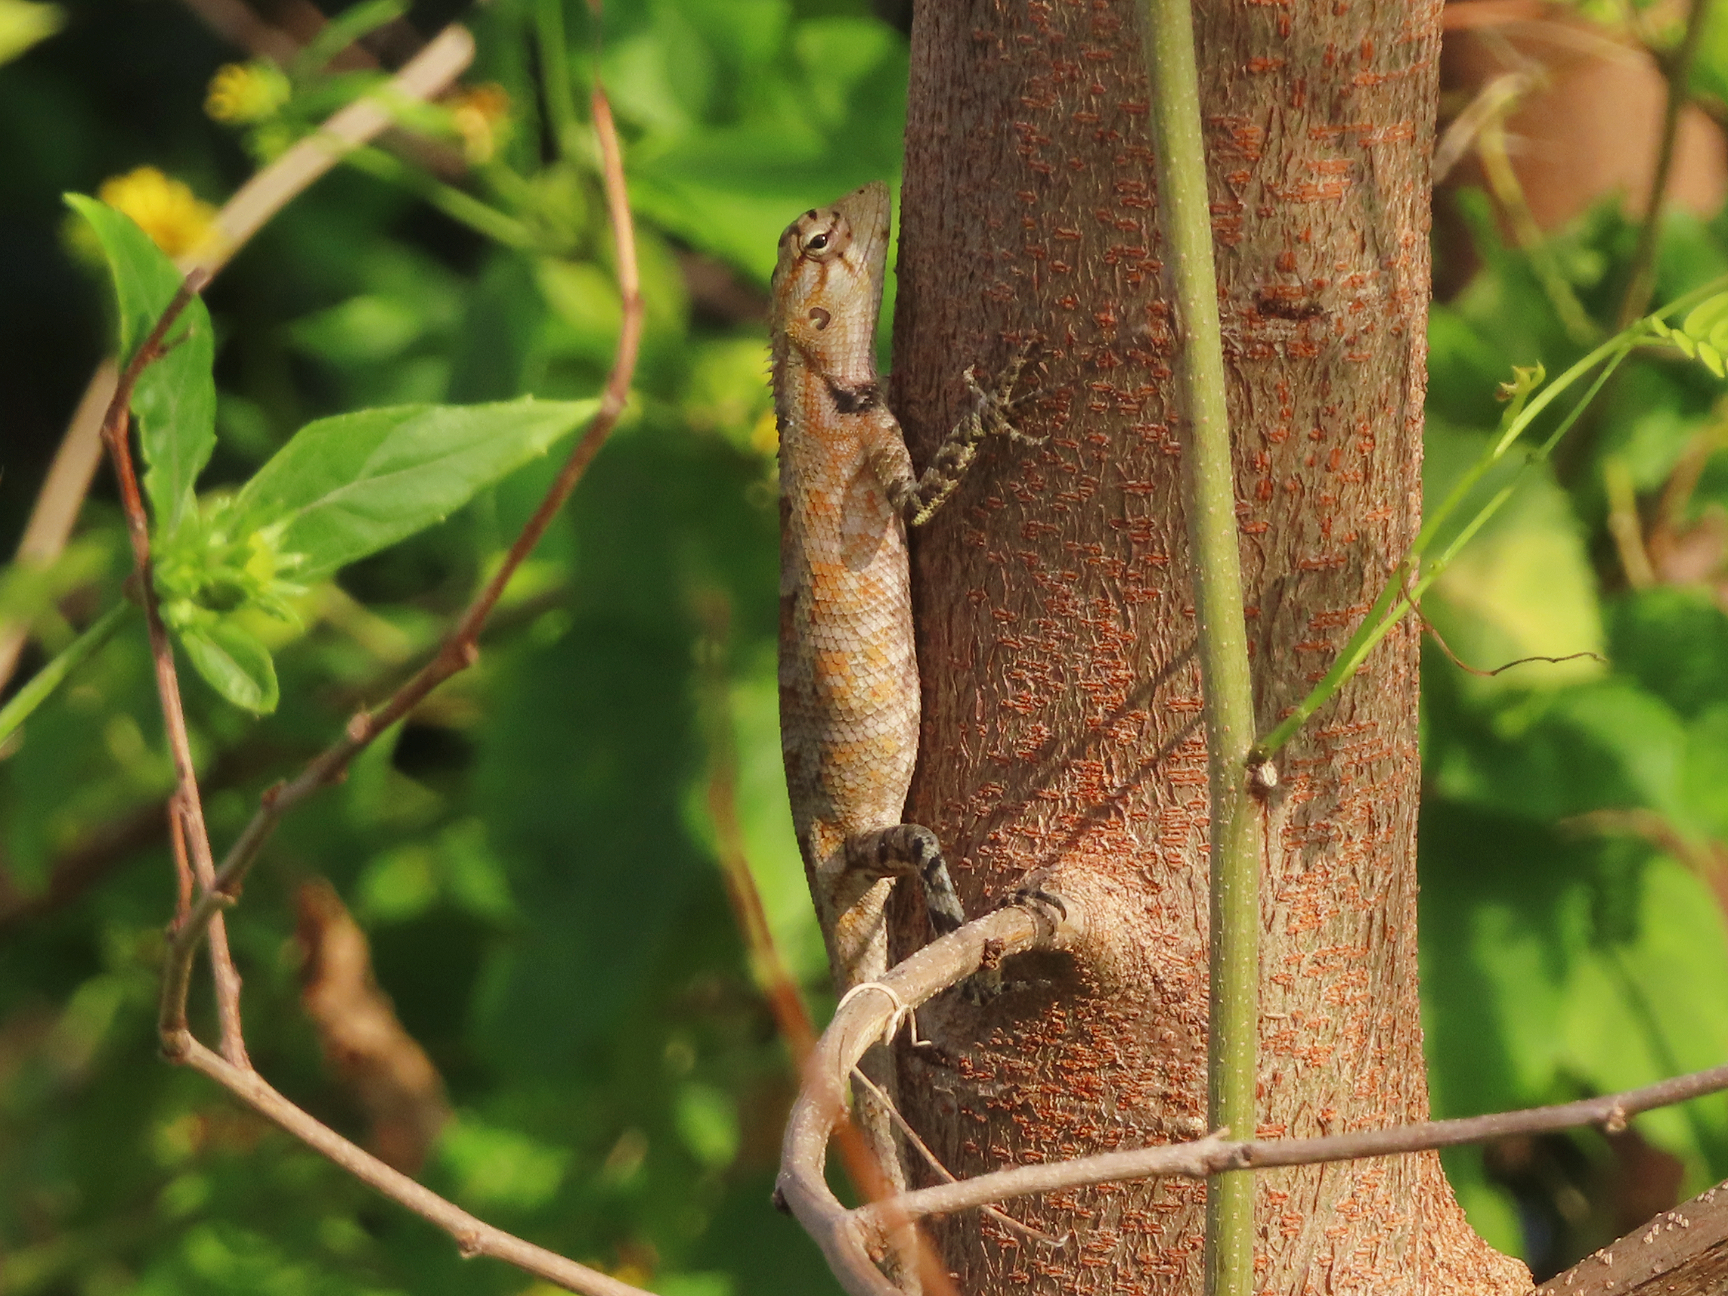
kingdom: Animalia
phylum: Chordata
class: Squamata
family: Agamidae
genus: Calotes
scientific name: Calotes versicolor
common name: Oriental garden lizard
